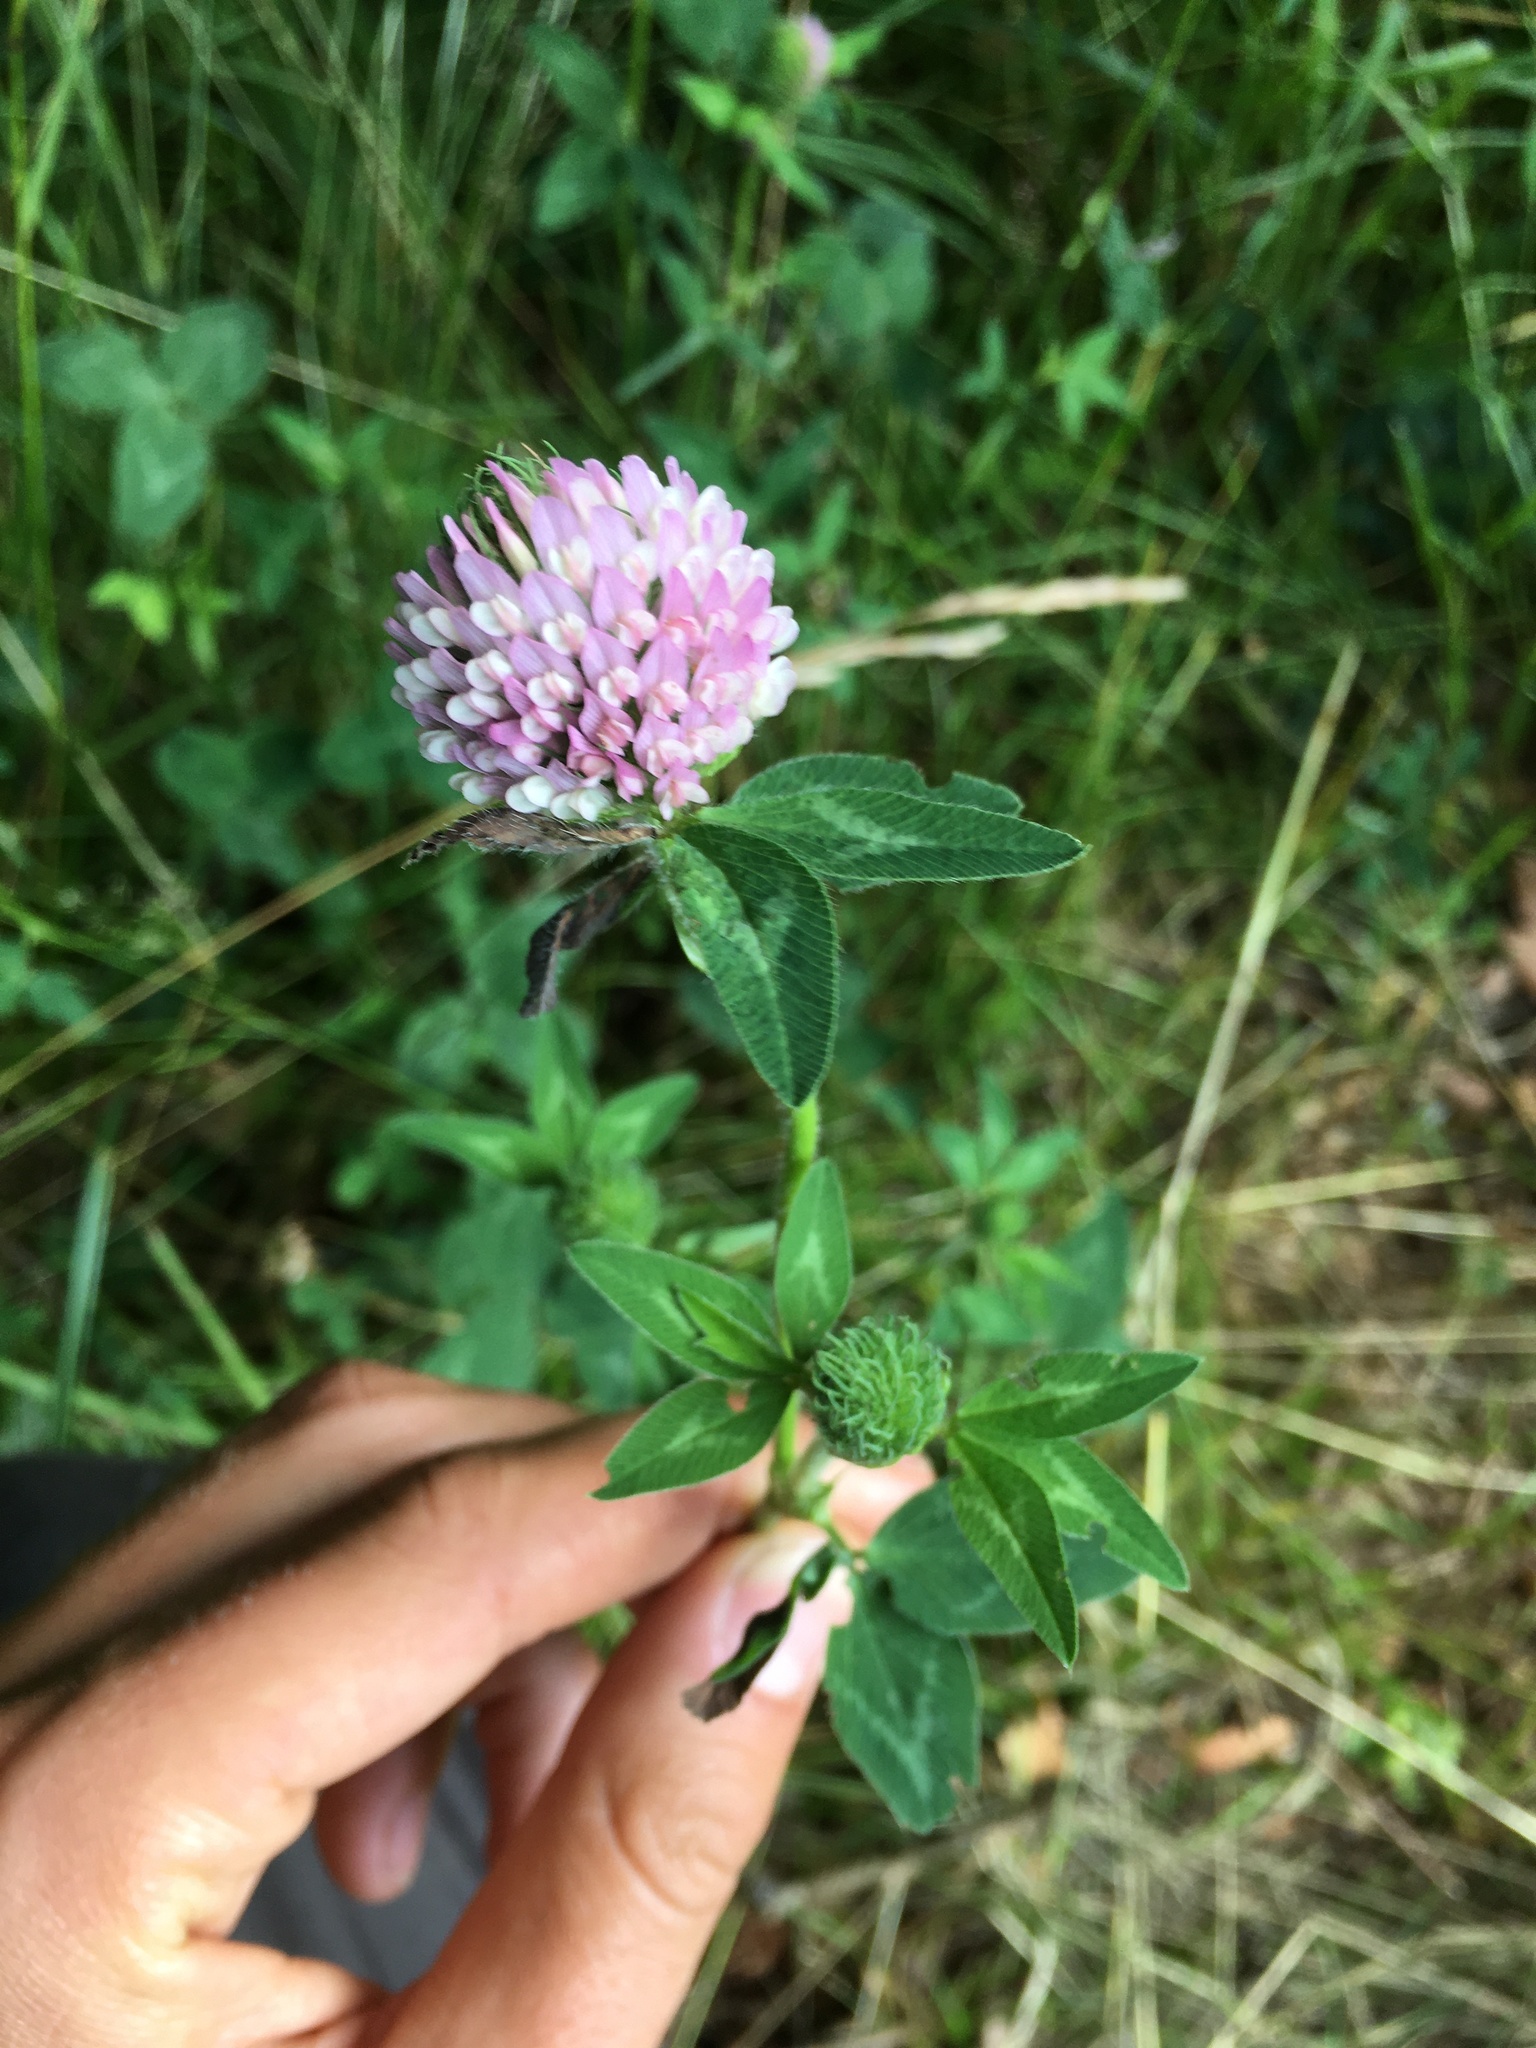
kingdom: Plantae
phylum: Tracheophyta
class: Magnoliopsida
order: Fabales
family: Fabaceae
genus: Trifolium
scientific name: Trifolium pratense
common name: Red clover
